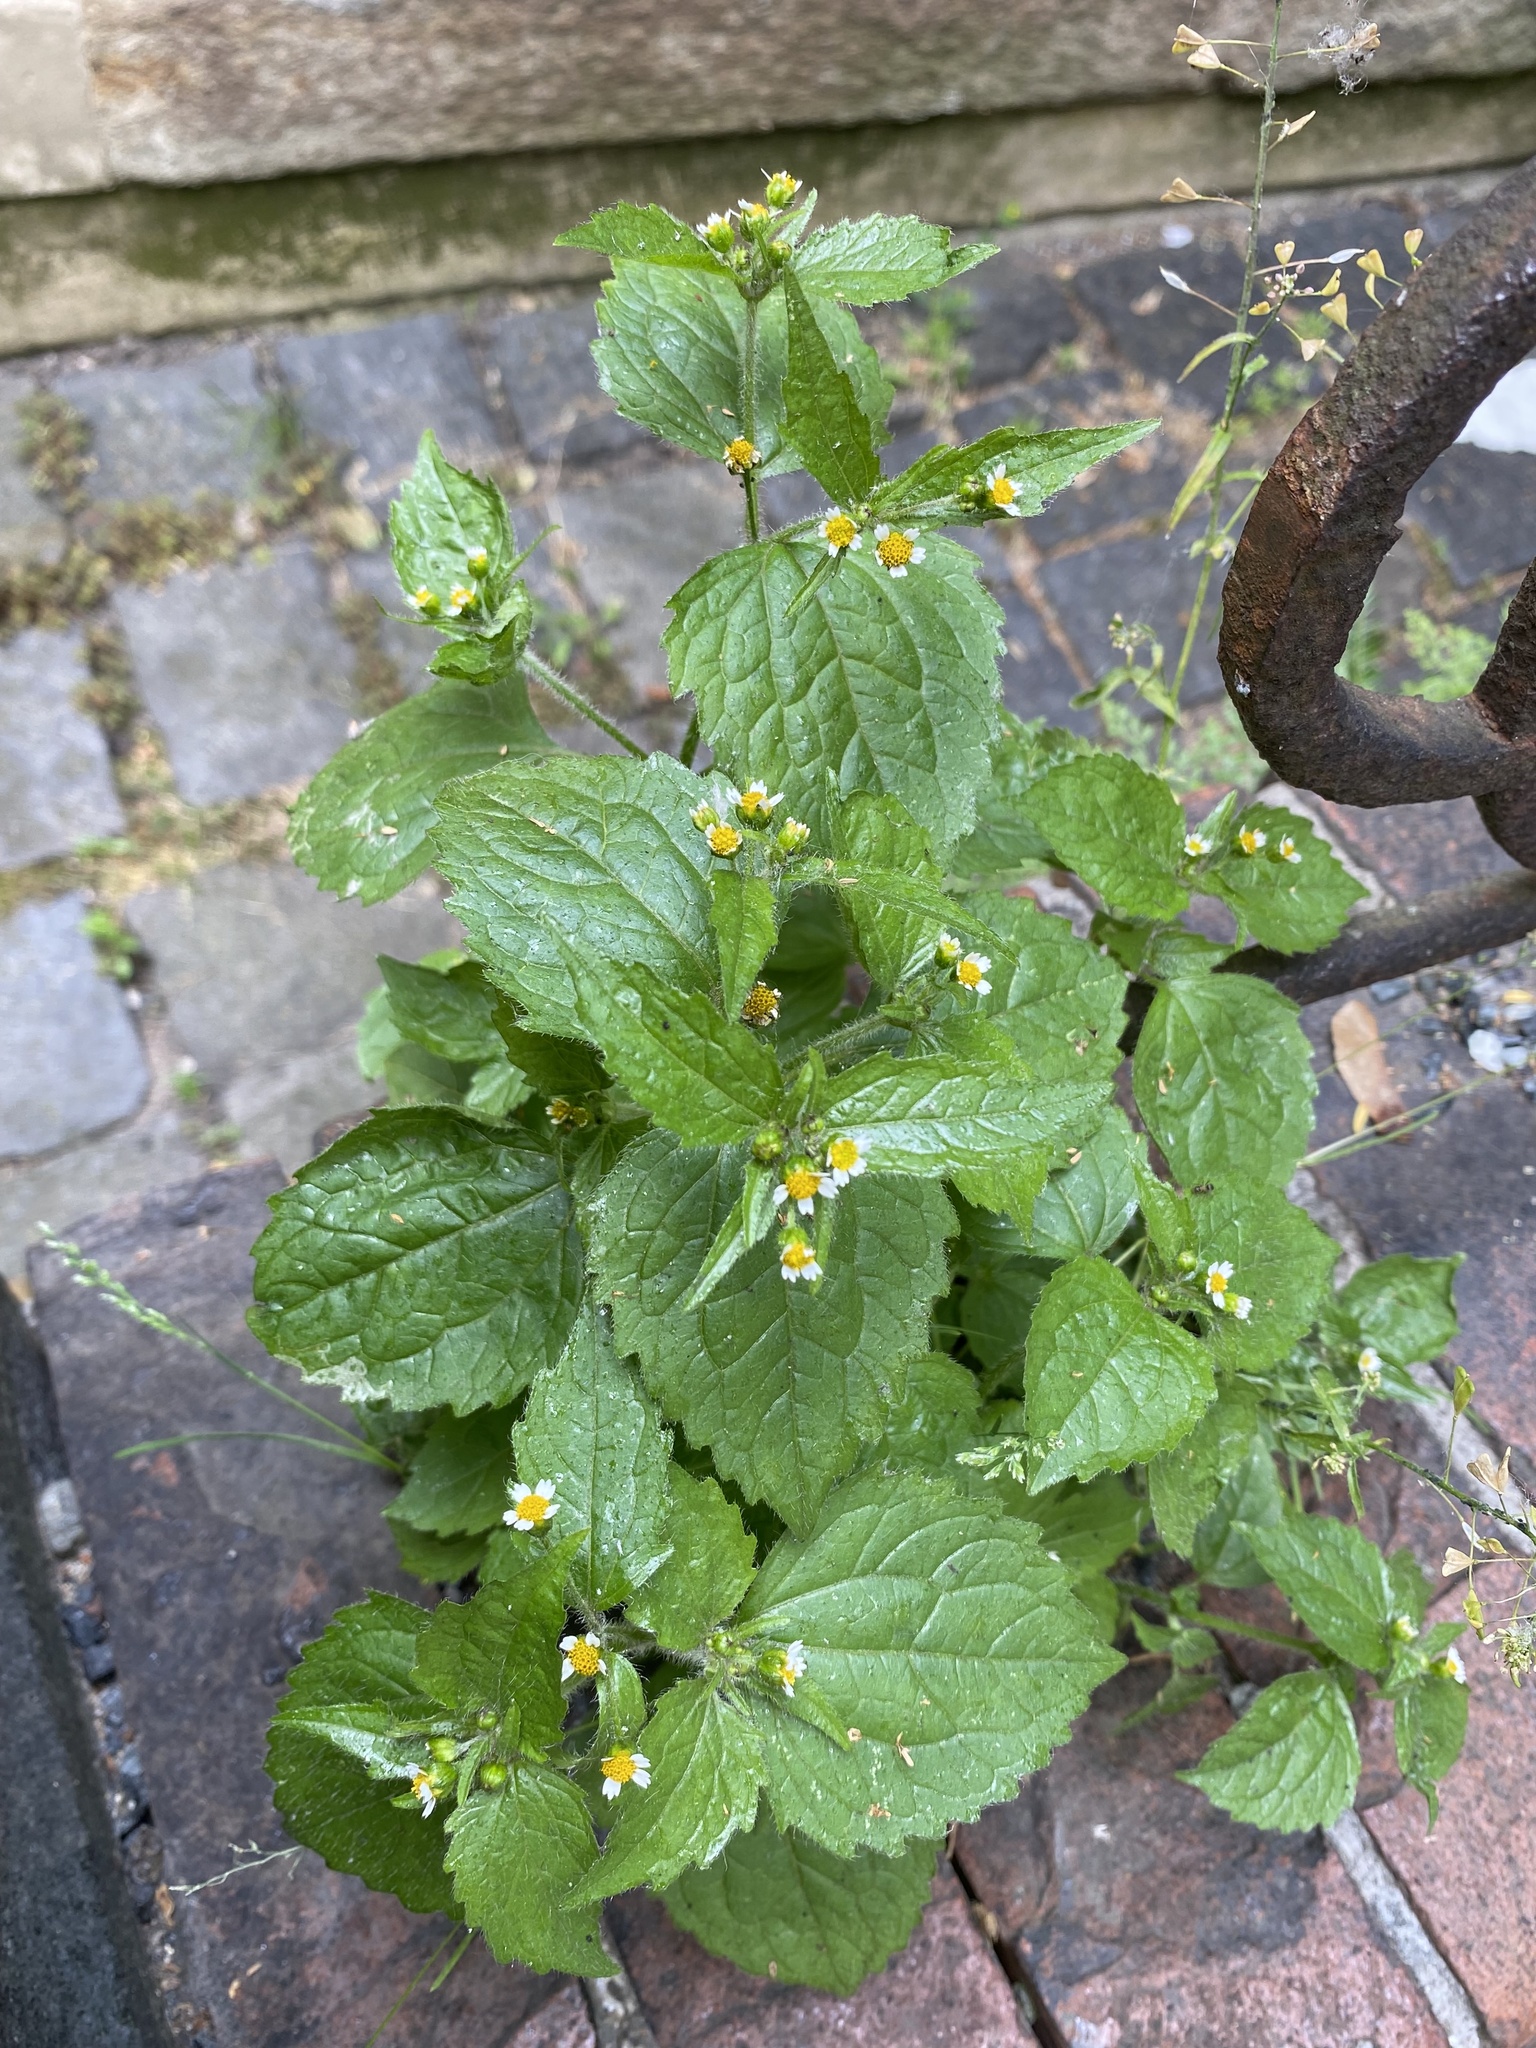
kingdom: Plantae
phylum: Tracheophyta
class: Magnoliopsida
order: Asterales
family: Asteraceae
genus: Galinsoga
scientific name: Galinsoga quadriradiata
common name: Shaggy soldier
